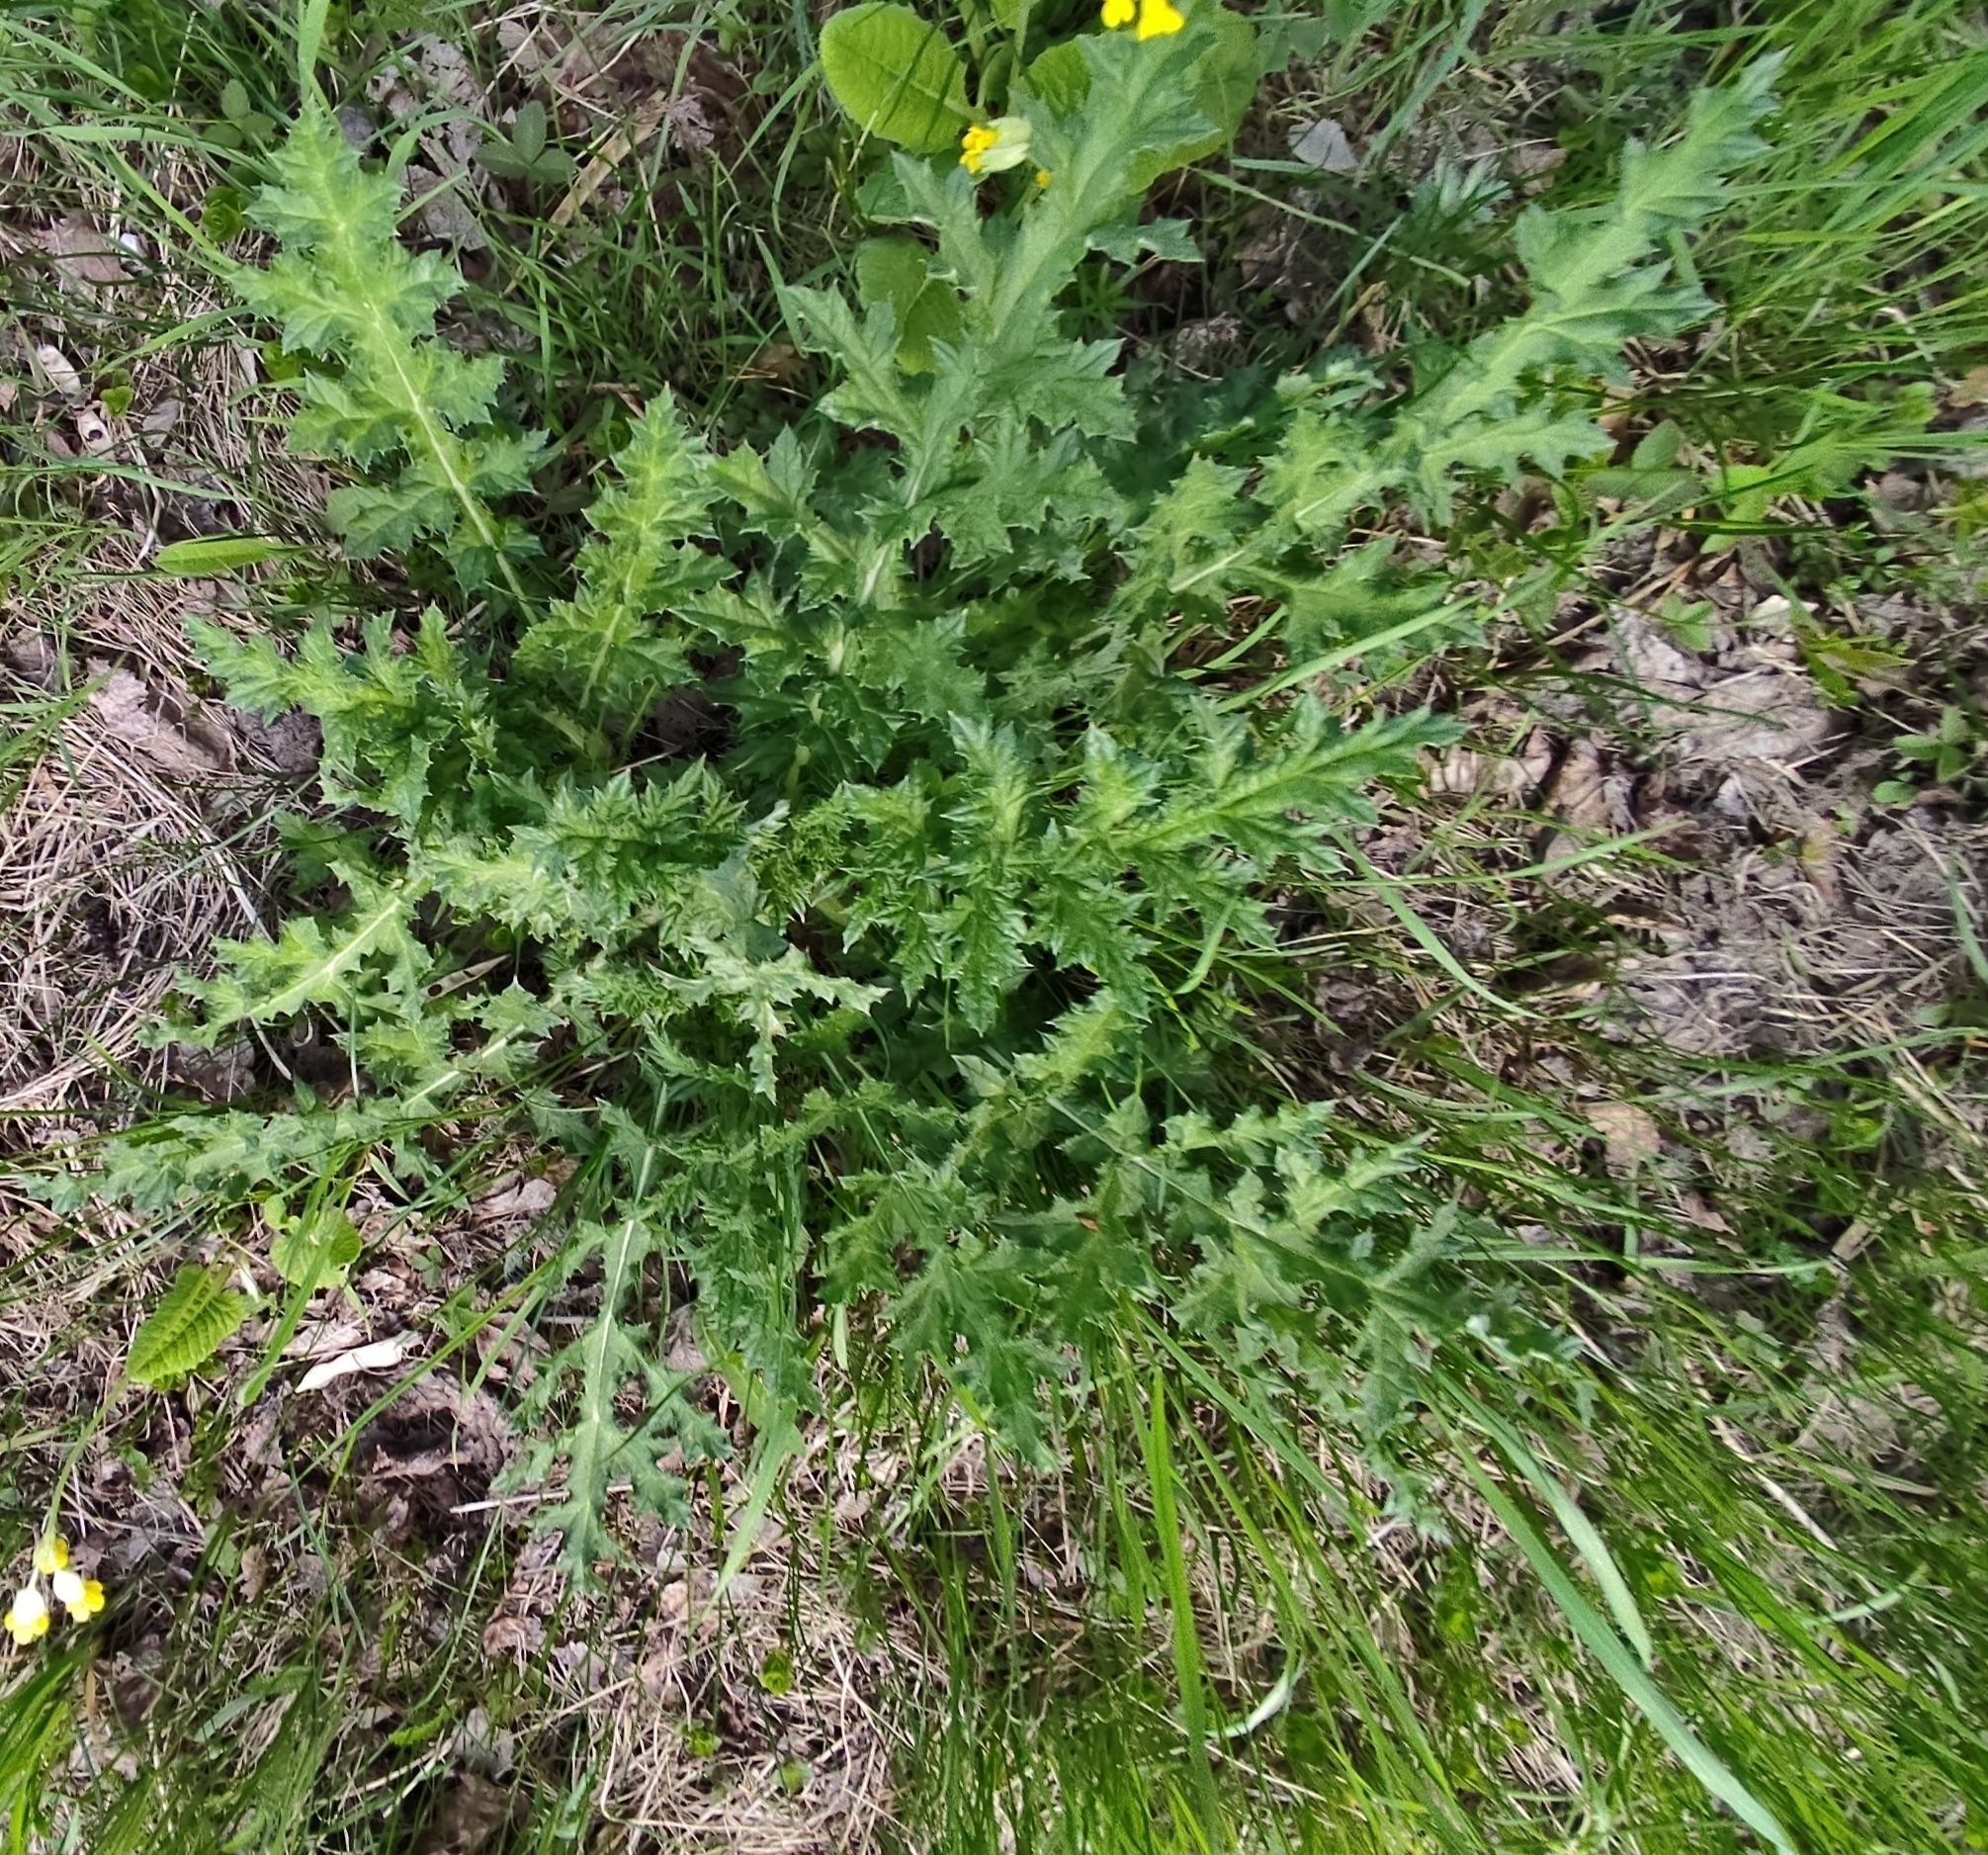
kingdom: Plantae
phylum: Tracheophyta
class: Magnoliopsida
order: Asterales
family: Asteraceae
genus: Echinops
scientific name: Echinops sphaerocephalus
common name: Glandular globe-thistle
